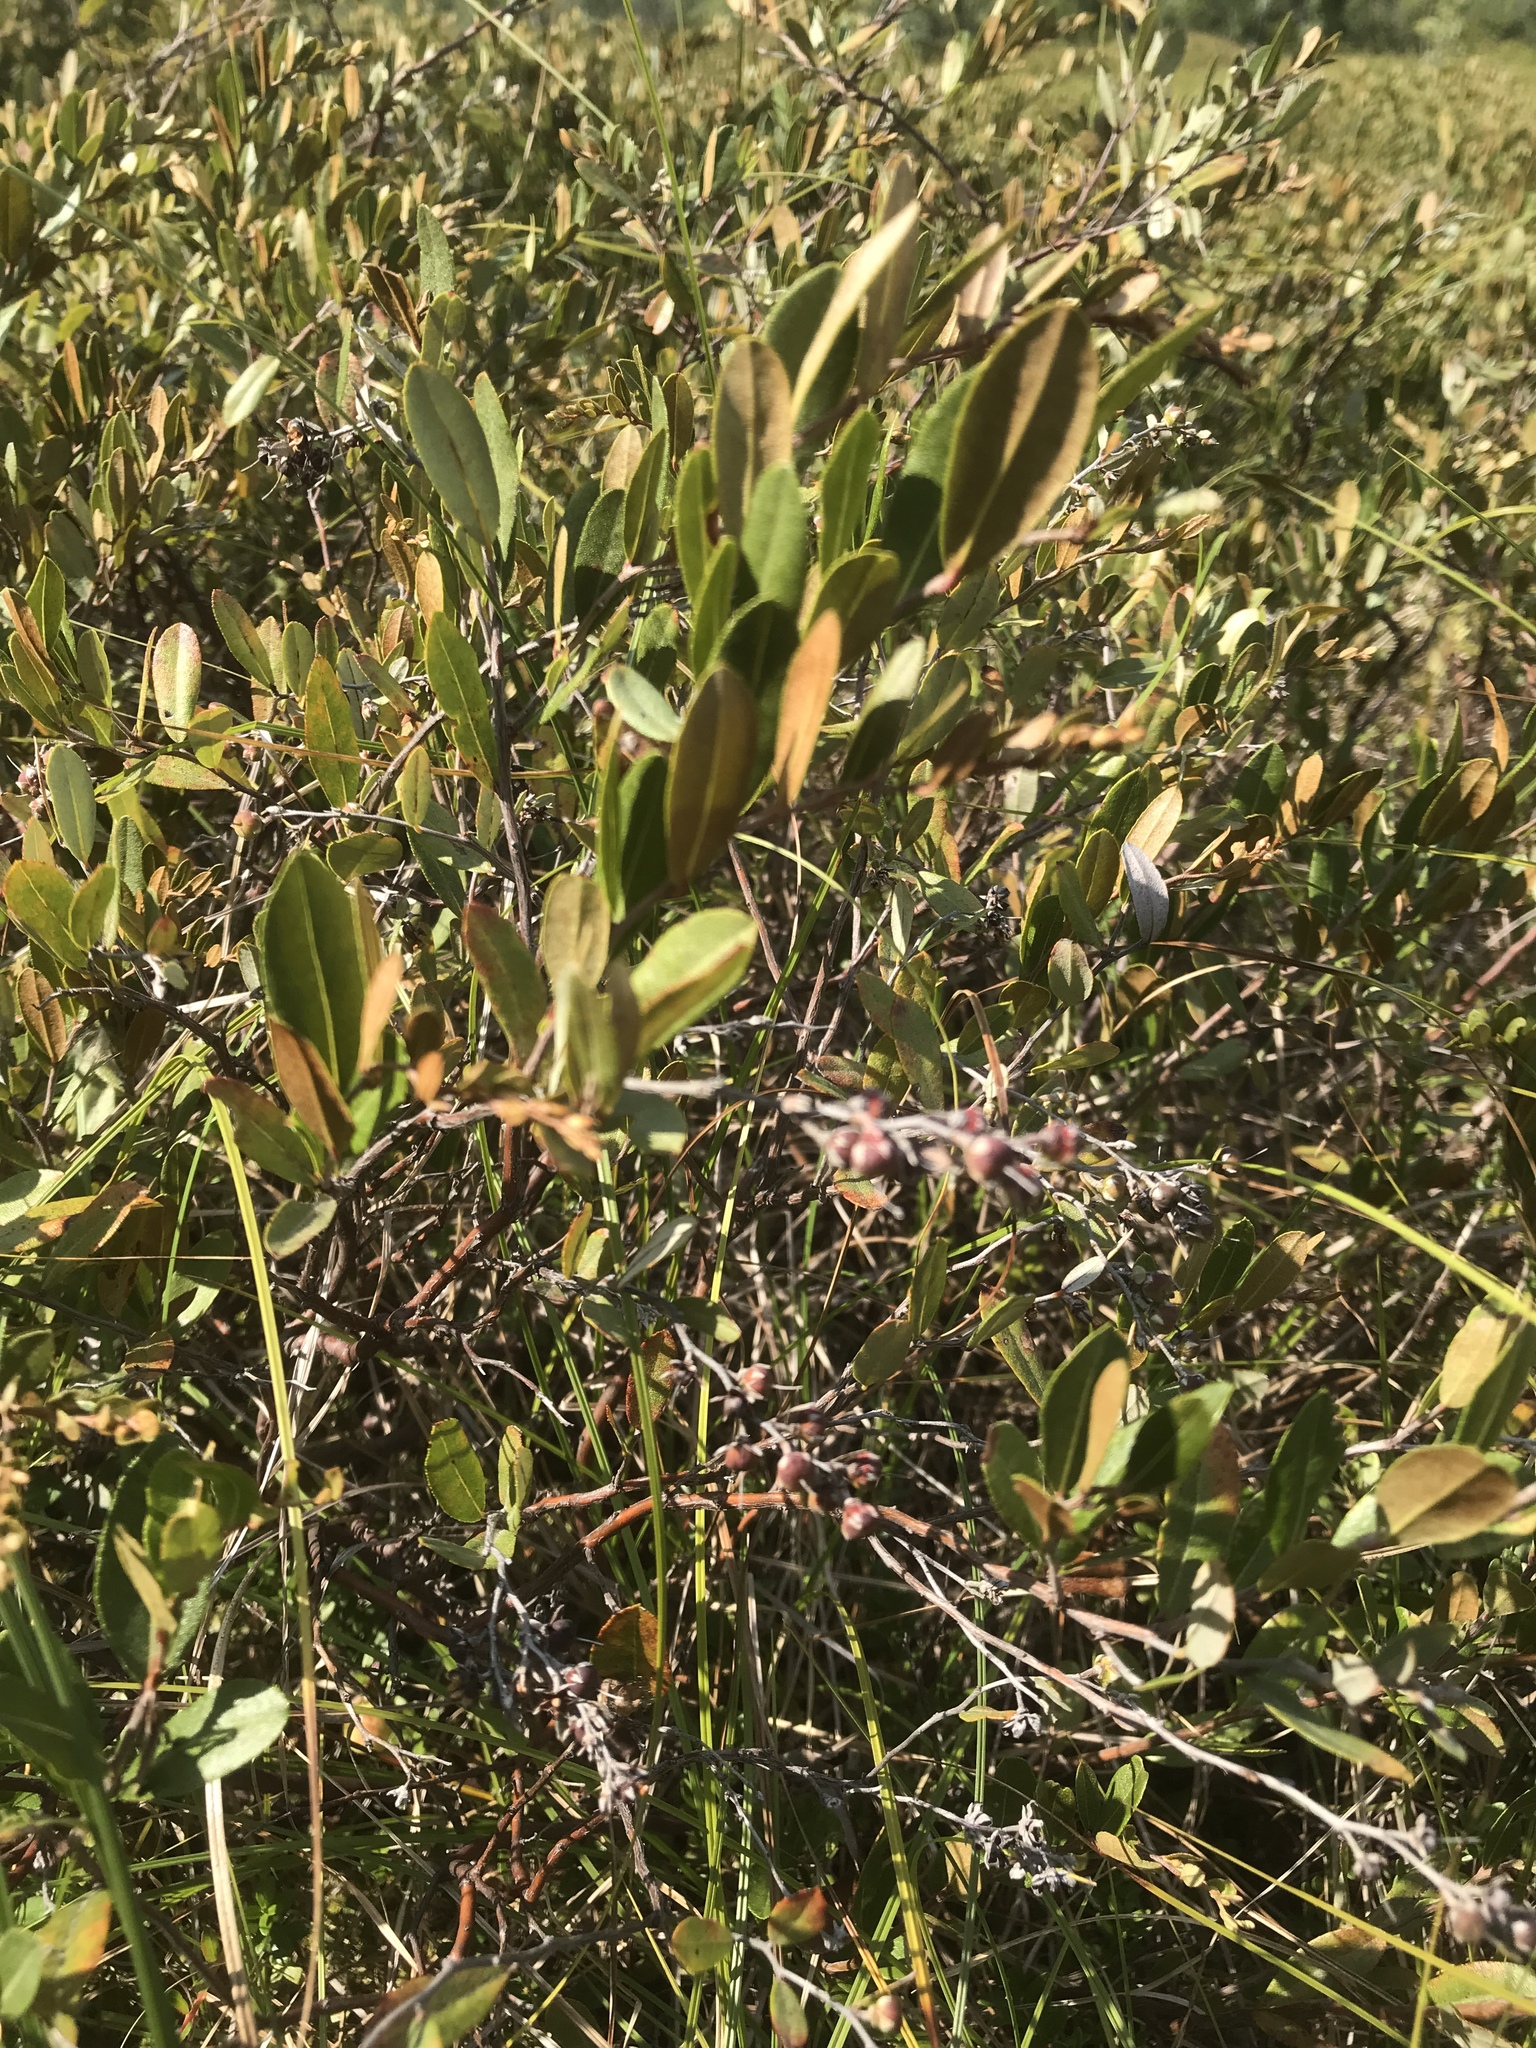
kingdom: Plantae
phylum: Tracheophyta
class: Magnoliopsida
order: Ericales
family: Ericaceae
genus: Chamaedaphne
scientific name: Chamaedaphne calyculata
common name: Leatherleaf
